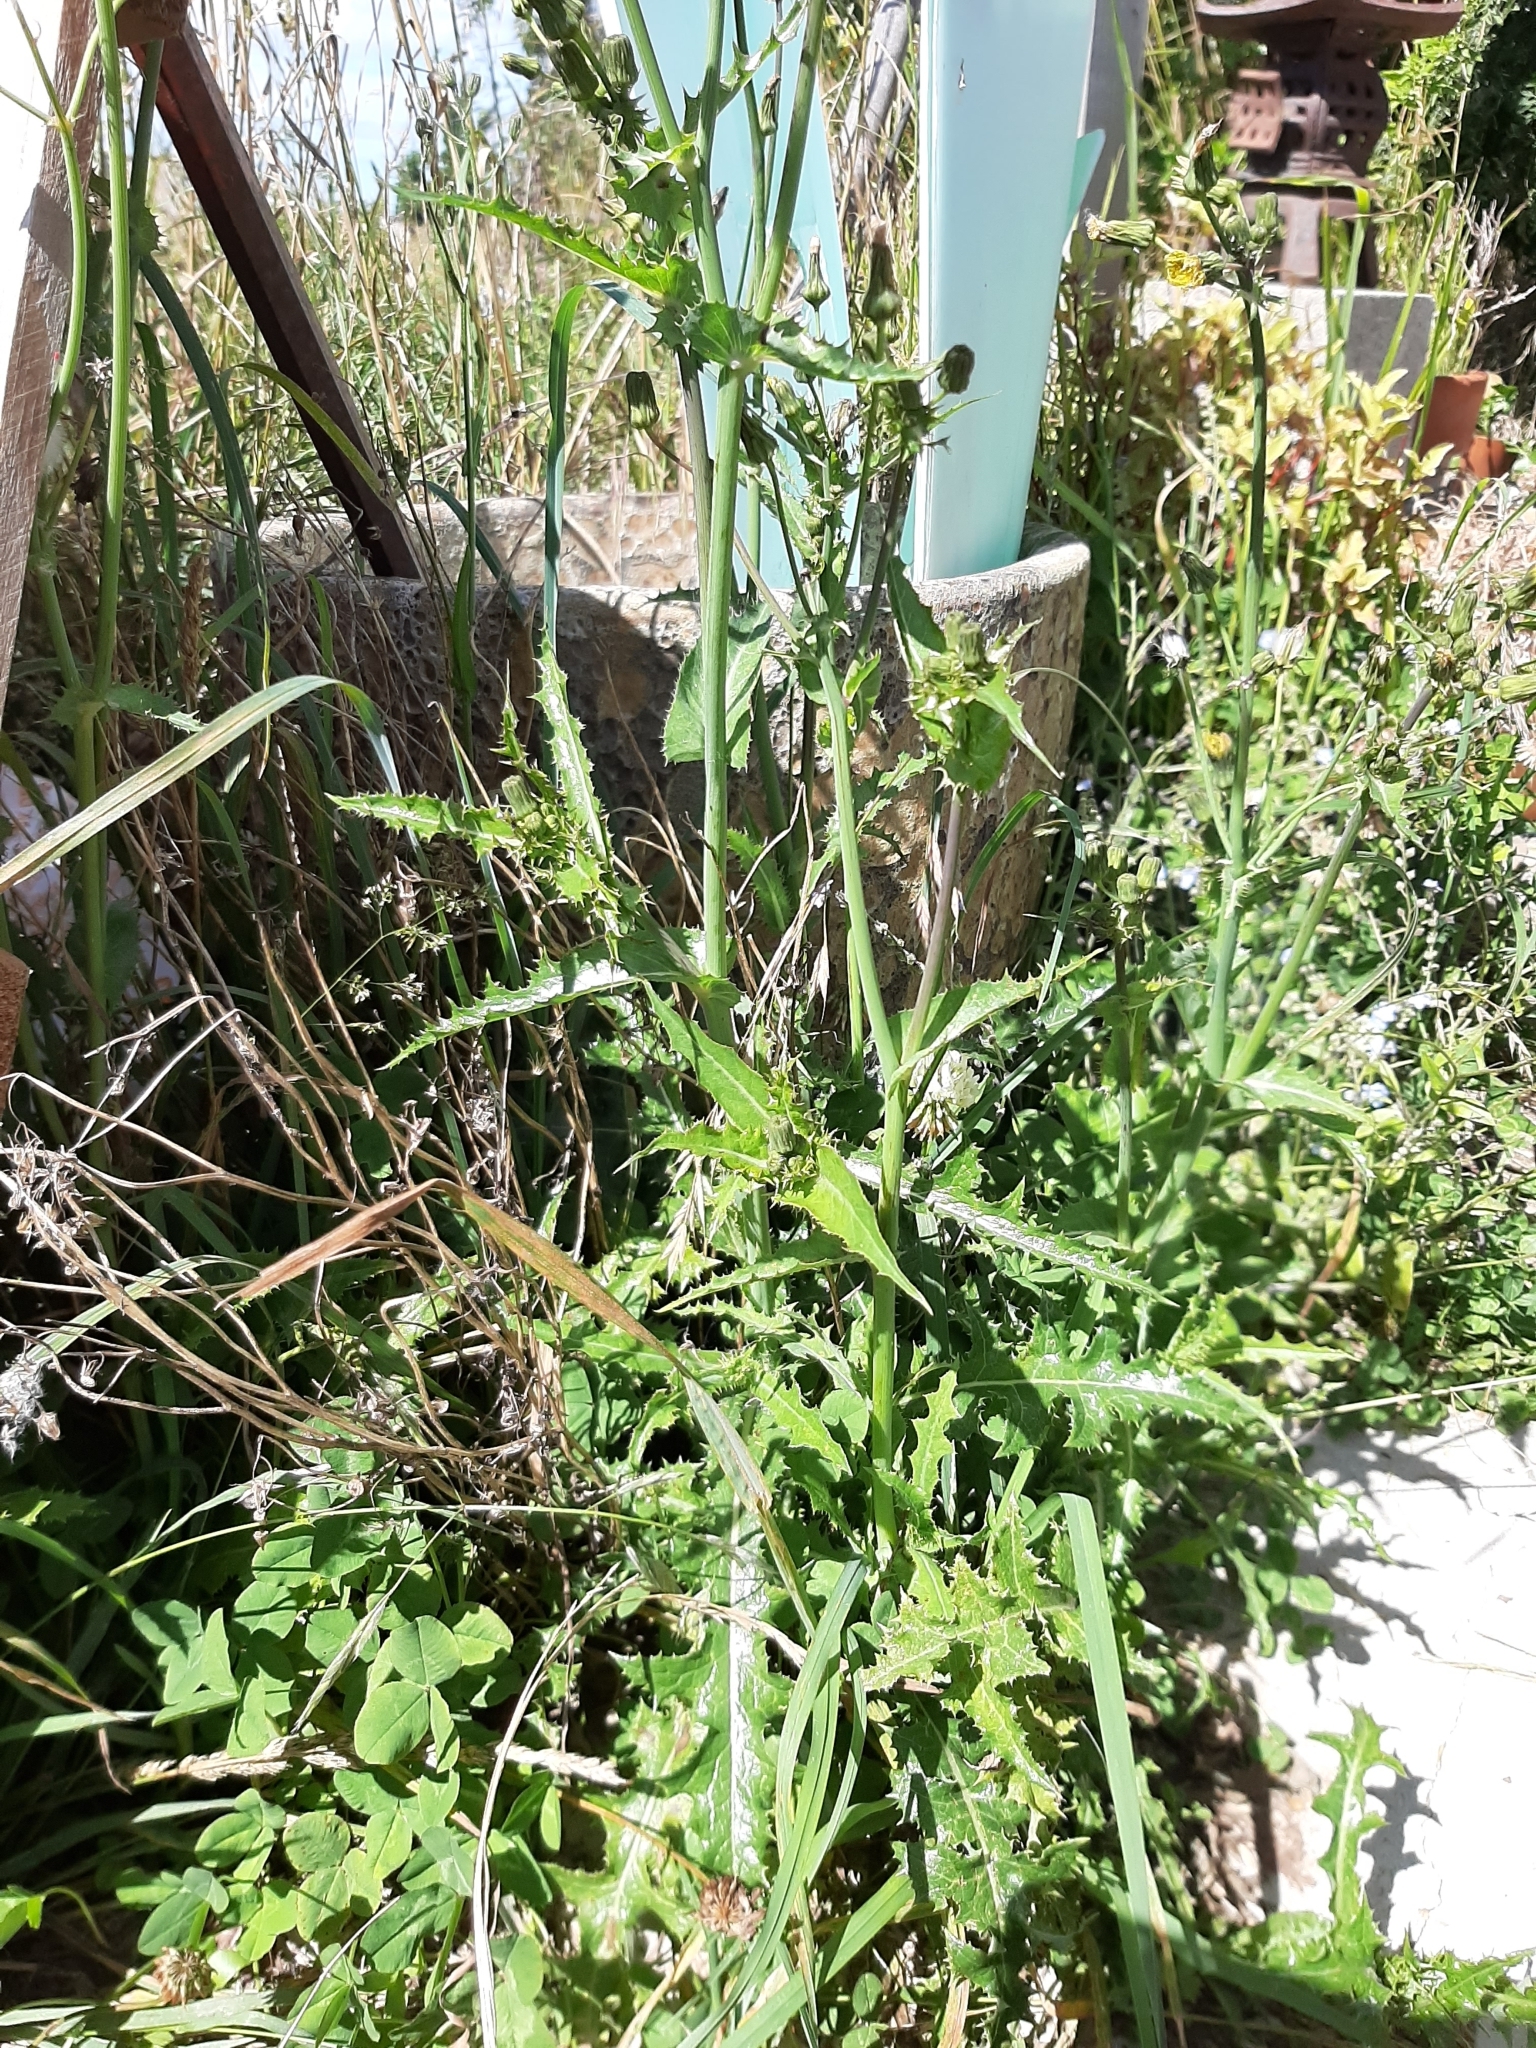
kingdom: Plantae
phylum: Tracheophyta
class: Magnoliopsida
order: Asterales
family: Asteraceae
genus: Sonchus
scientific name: Sonchus asper
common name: Prickly sow-thistle
